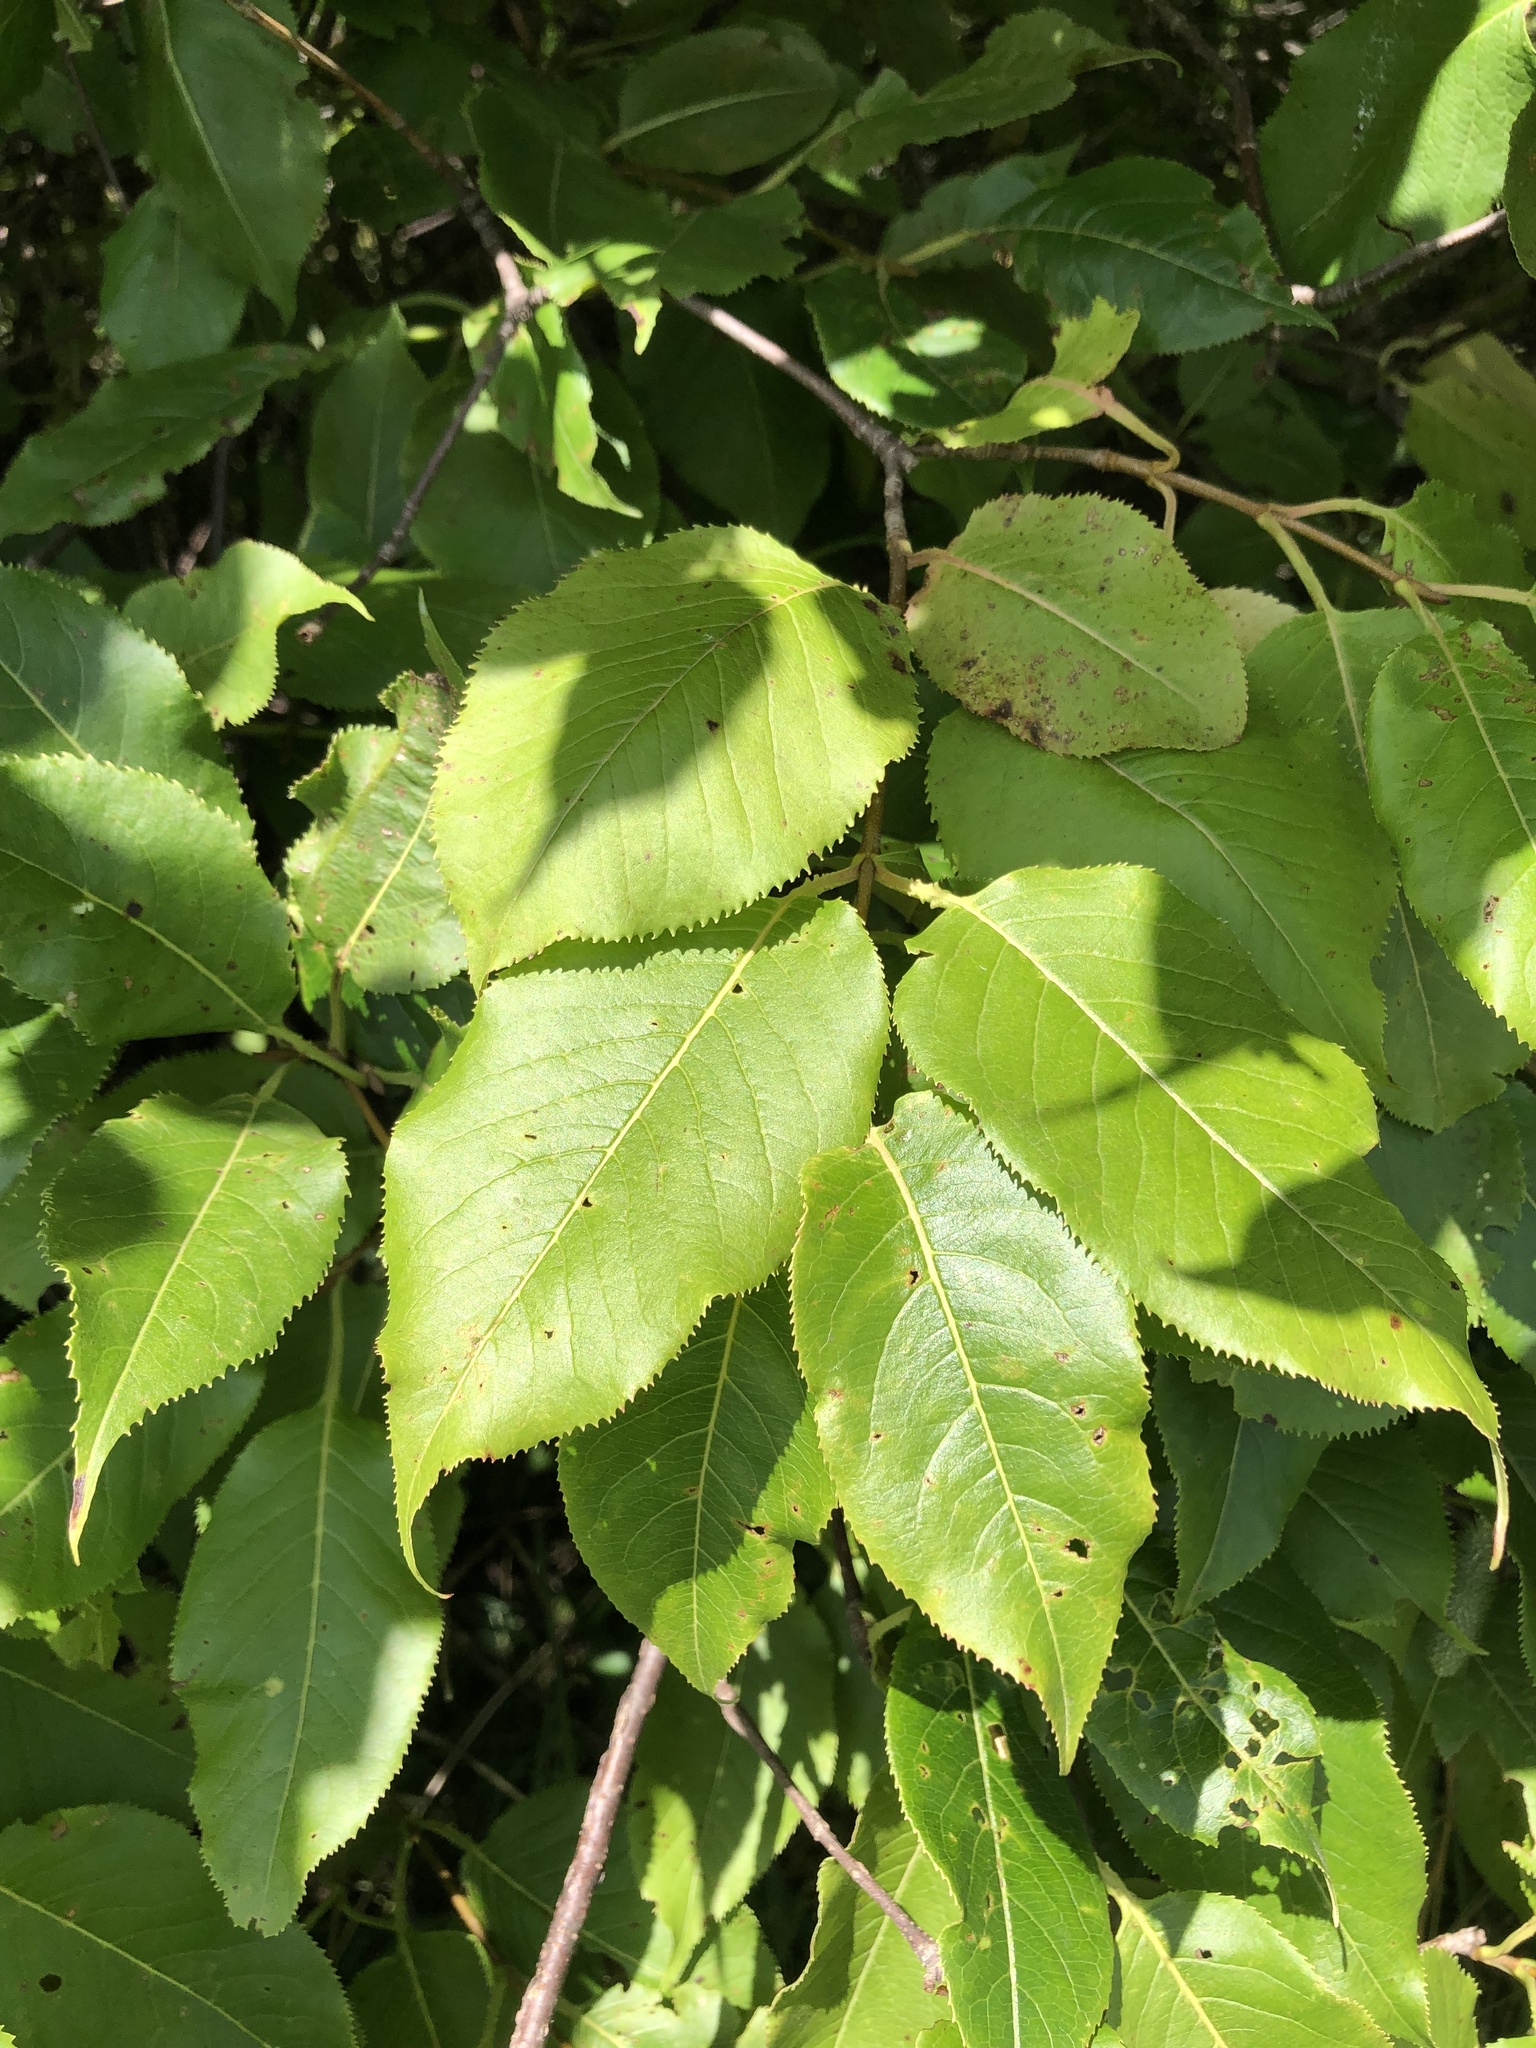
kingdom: Plantae
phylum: Tracheophyta
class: Magnoliopsida
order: Dipsacales
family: Viburnaceae
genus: Viburnum
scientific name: Viburnum lentago
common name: Black haw
